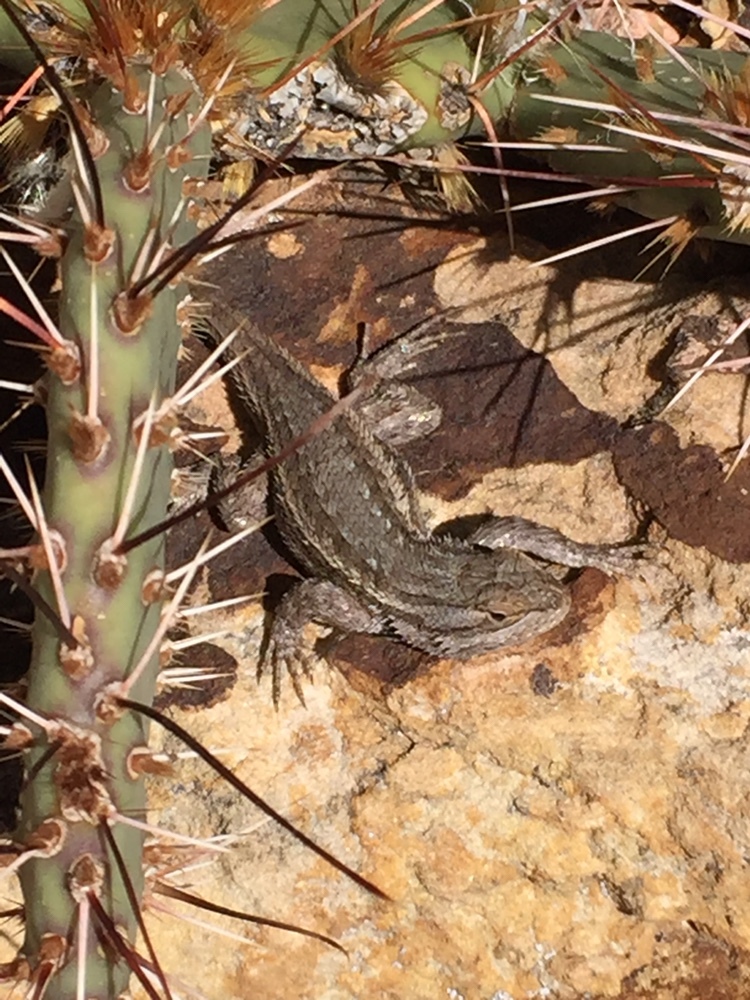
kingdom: Animalia
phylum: Chordata
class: Squamata
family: Phrynosomatidae
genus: Sceloporus
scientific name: Sceloporus cowlesi
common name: White sands prairie lizard
